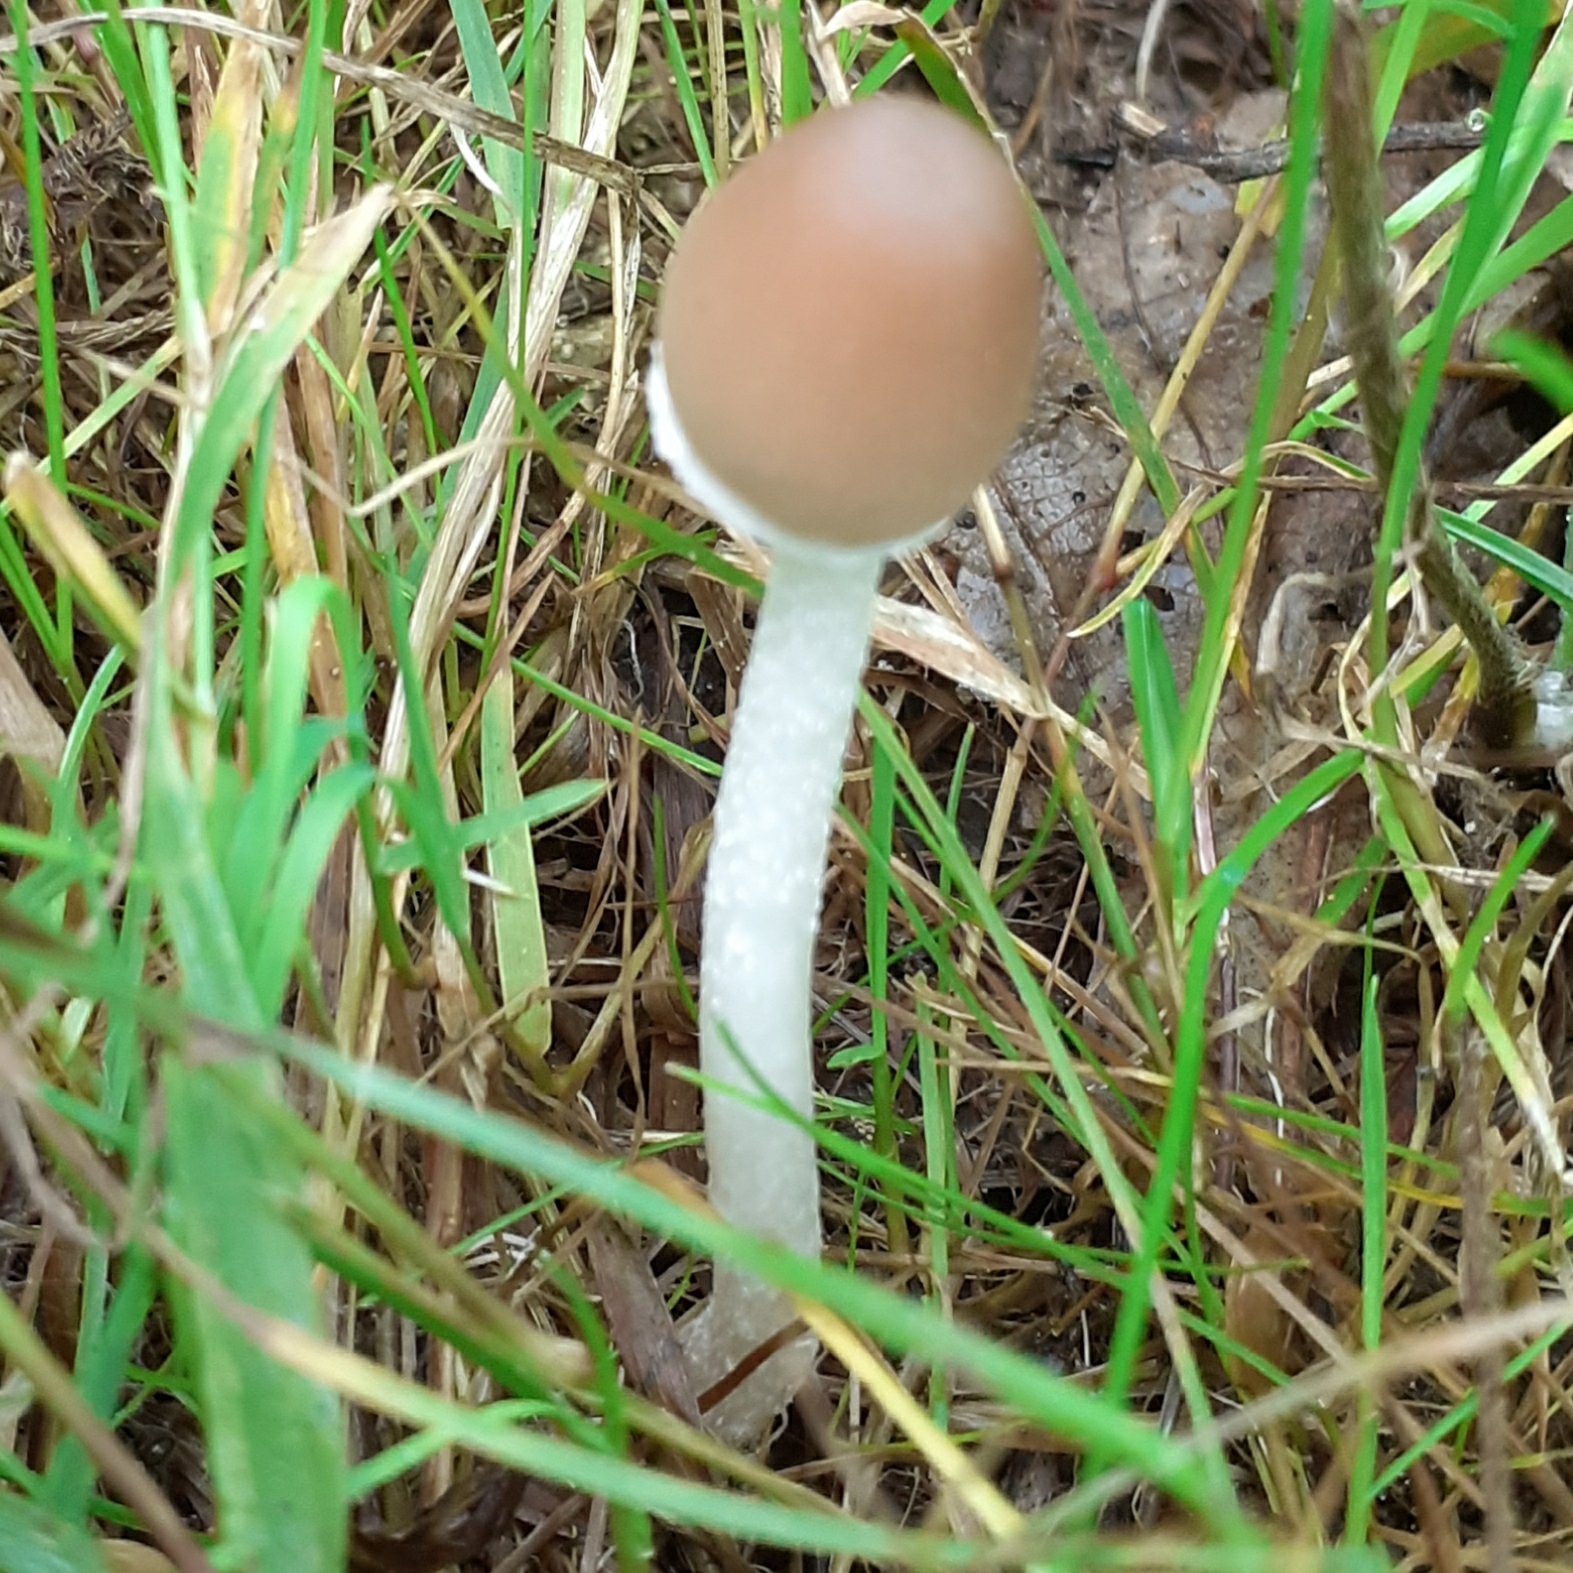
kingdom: Fungi
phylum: Basidiomycota
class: Agaricomycetes
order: Agaricales
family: Psathyrellaceae
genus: Psathyrella
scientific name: Psathyrella
